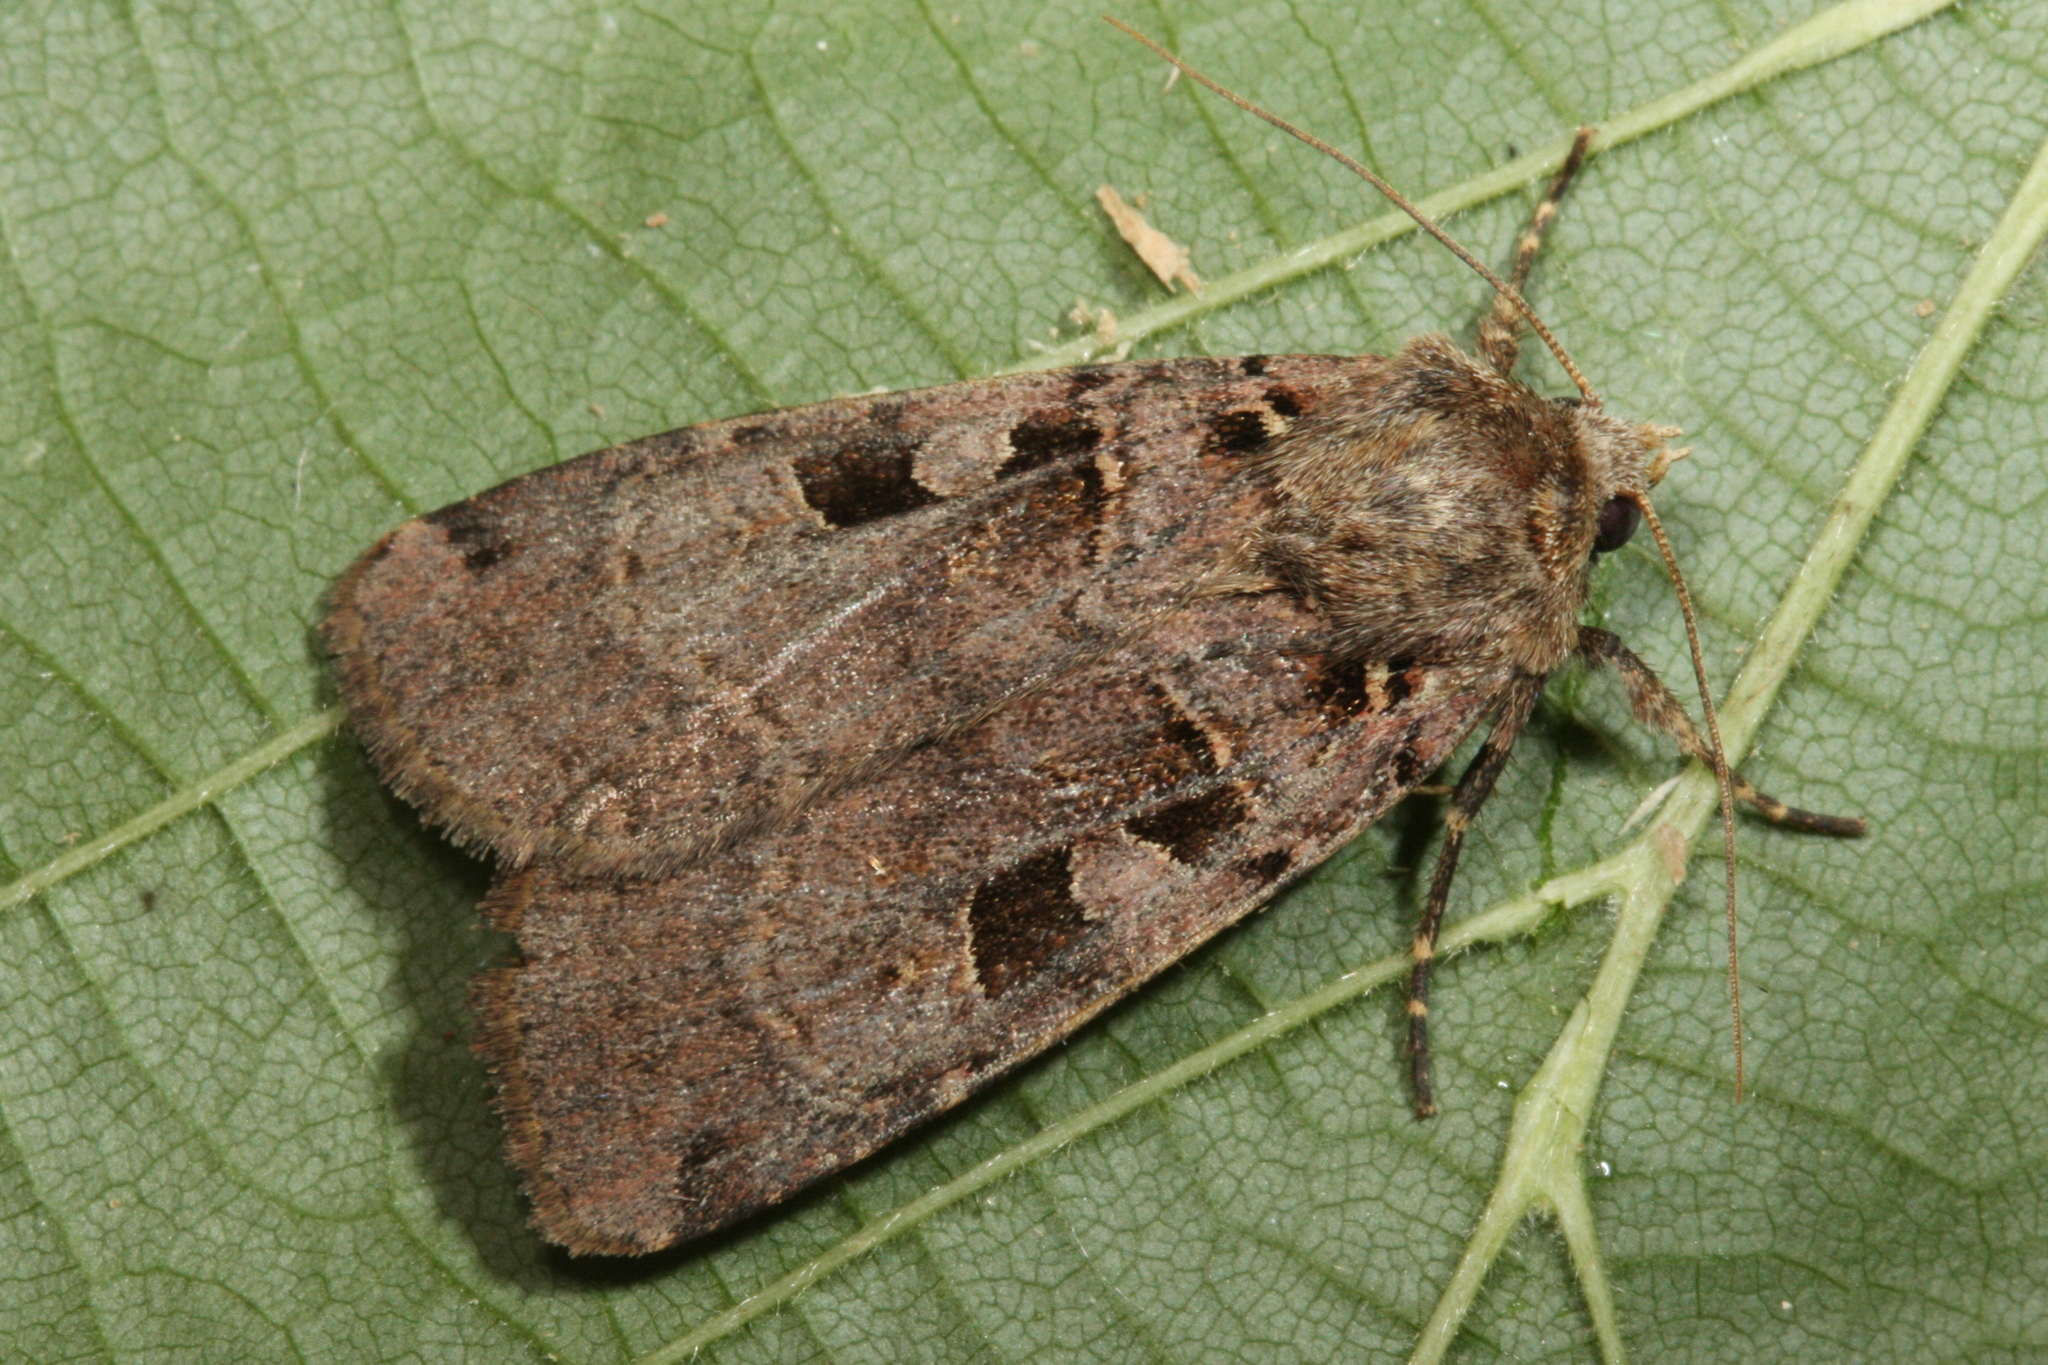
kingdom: Animalia
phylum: Arthropoda
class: Insecta
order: Lepidoptera
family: Noctuidae
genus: Xestia
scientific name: Xestia triangulum
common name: Double square-spot
